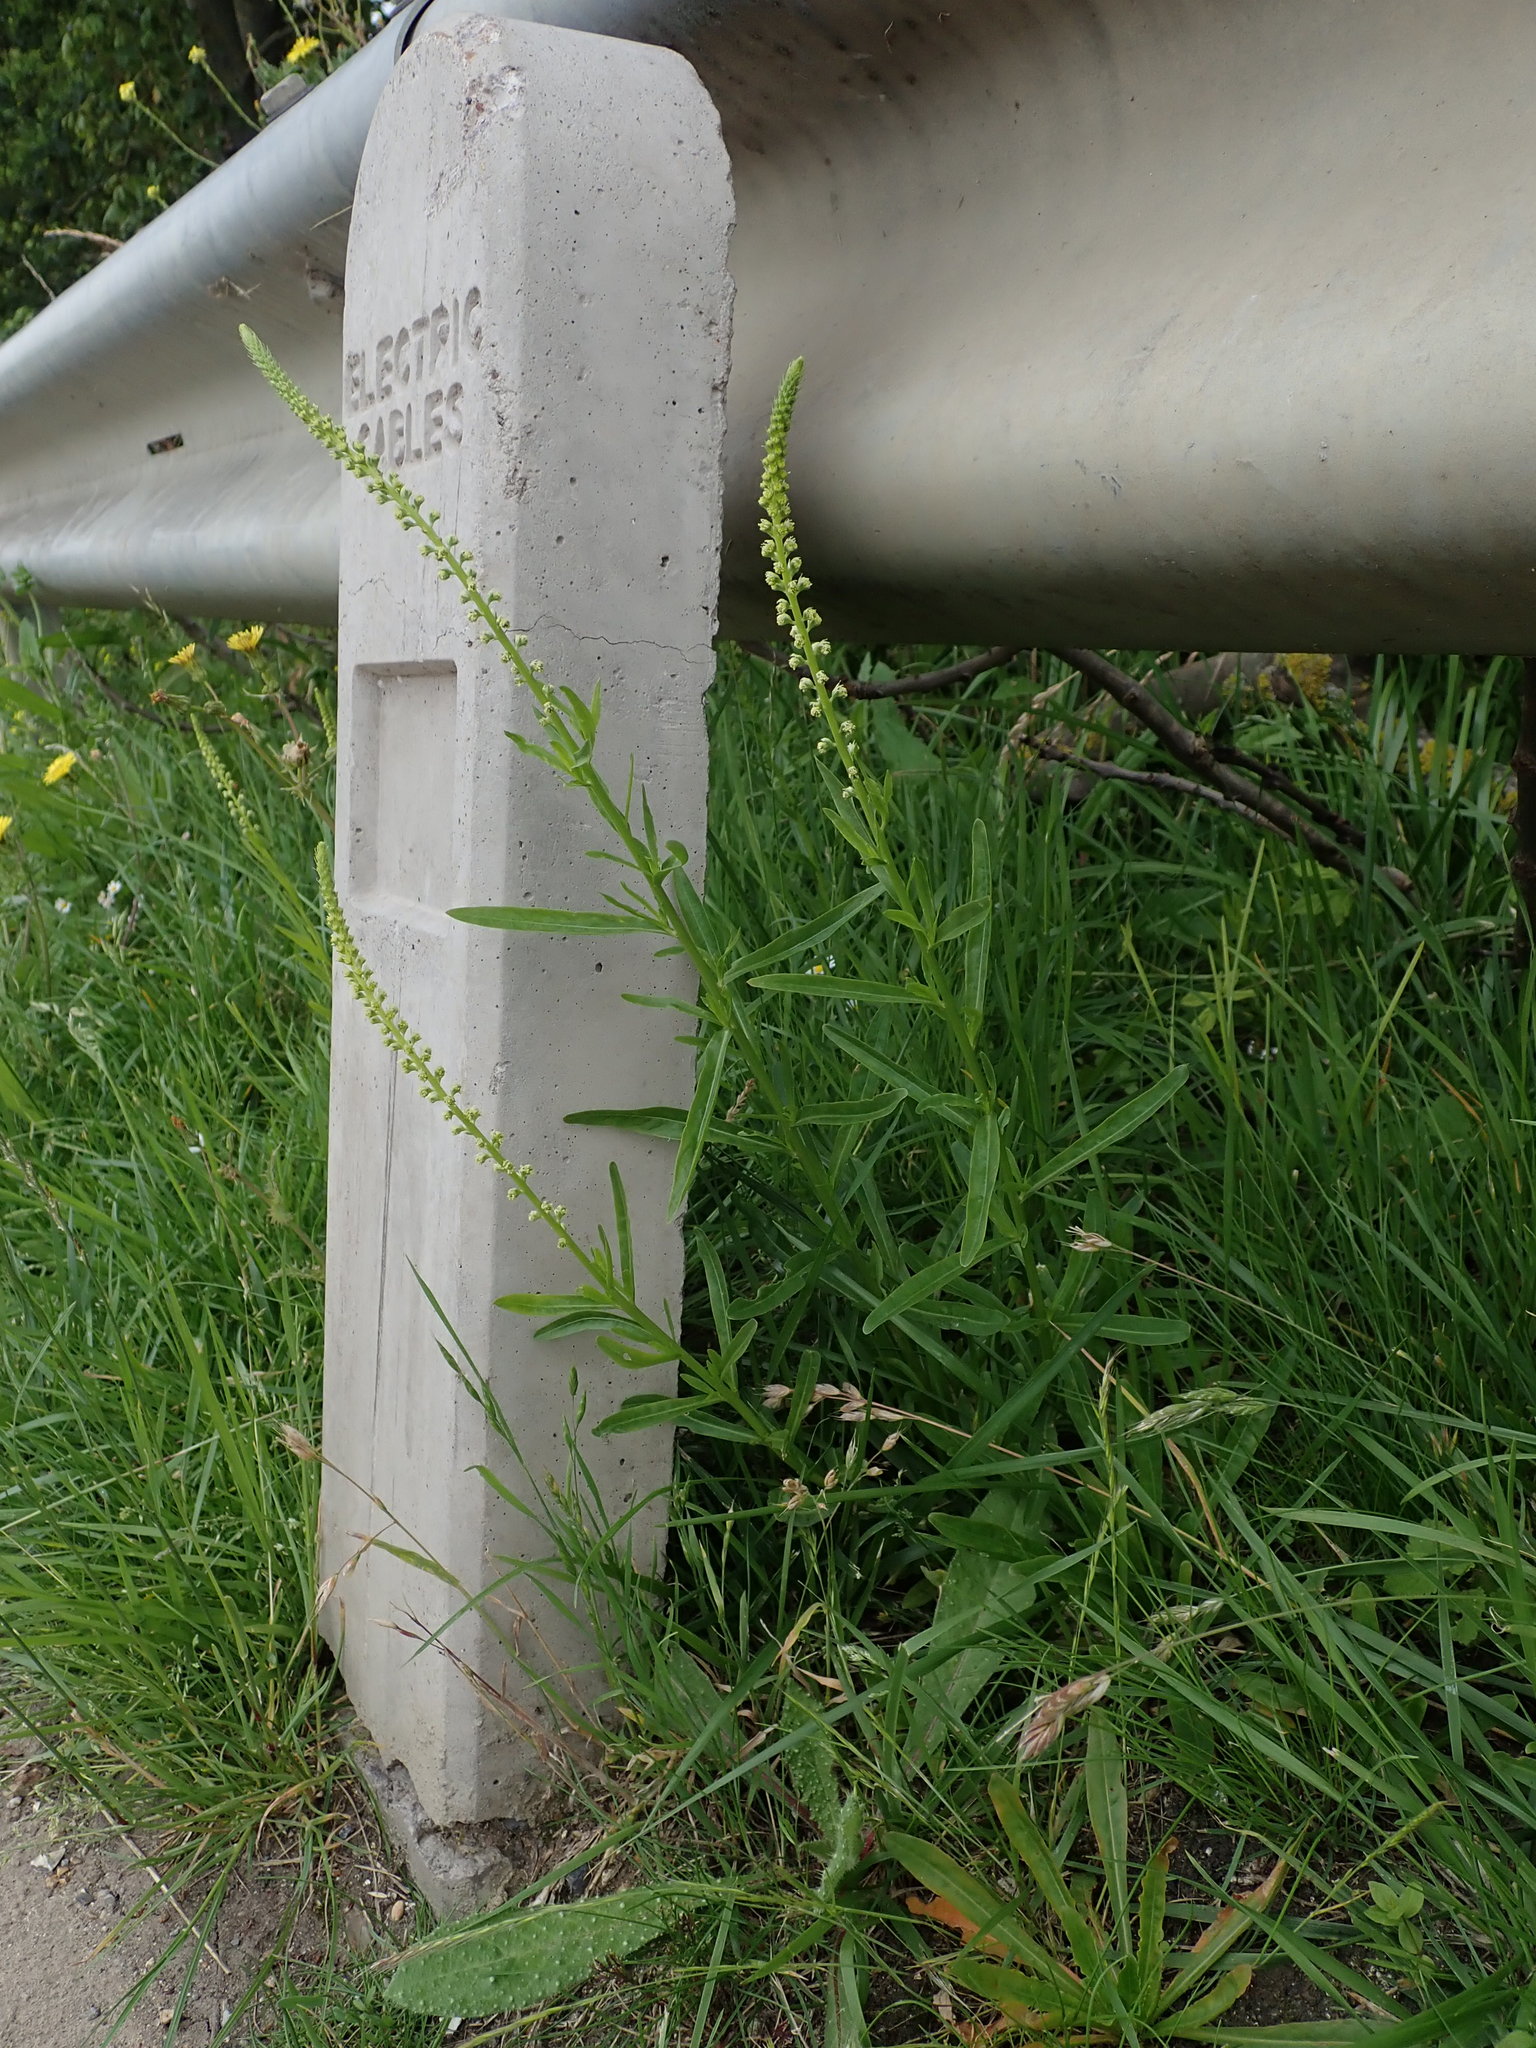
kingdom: Plantae
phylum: Tracheophyta
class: Magnoliopsida
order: Brassicales
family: Resedaceae
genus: Reseda
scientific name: Reseda luteola
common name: Weld
